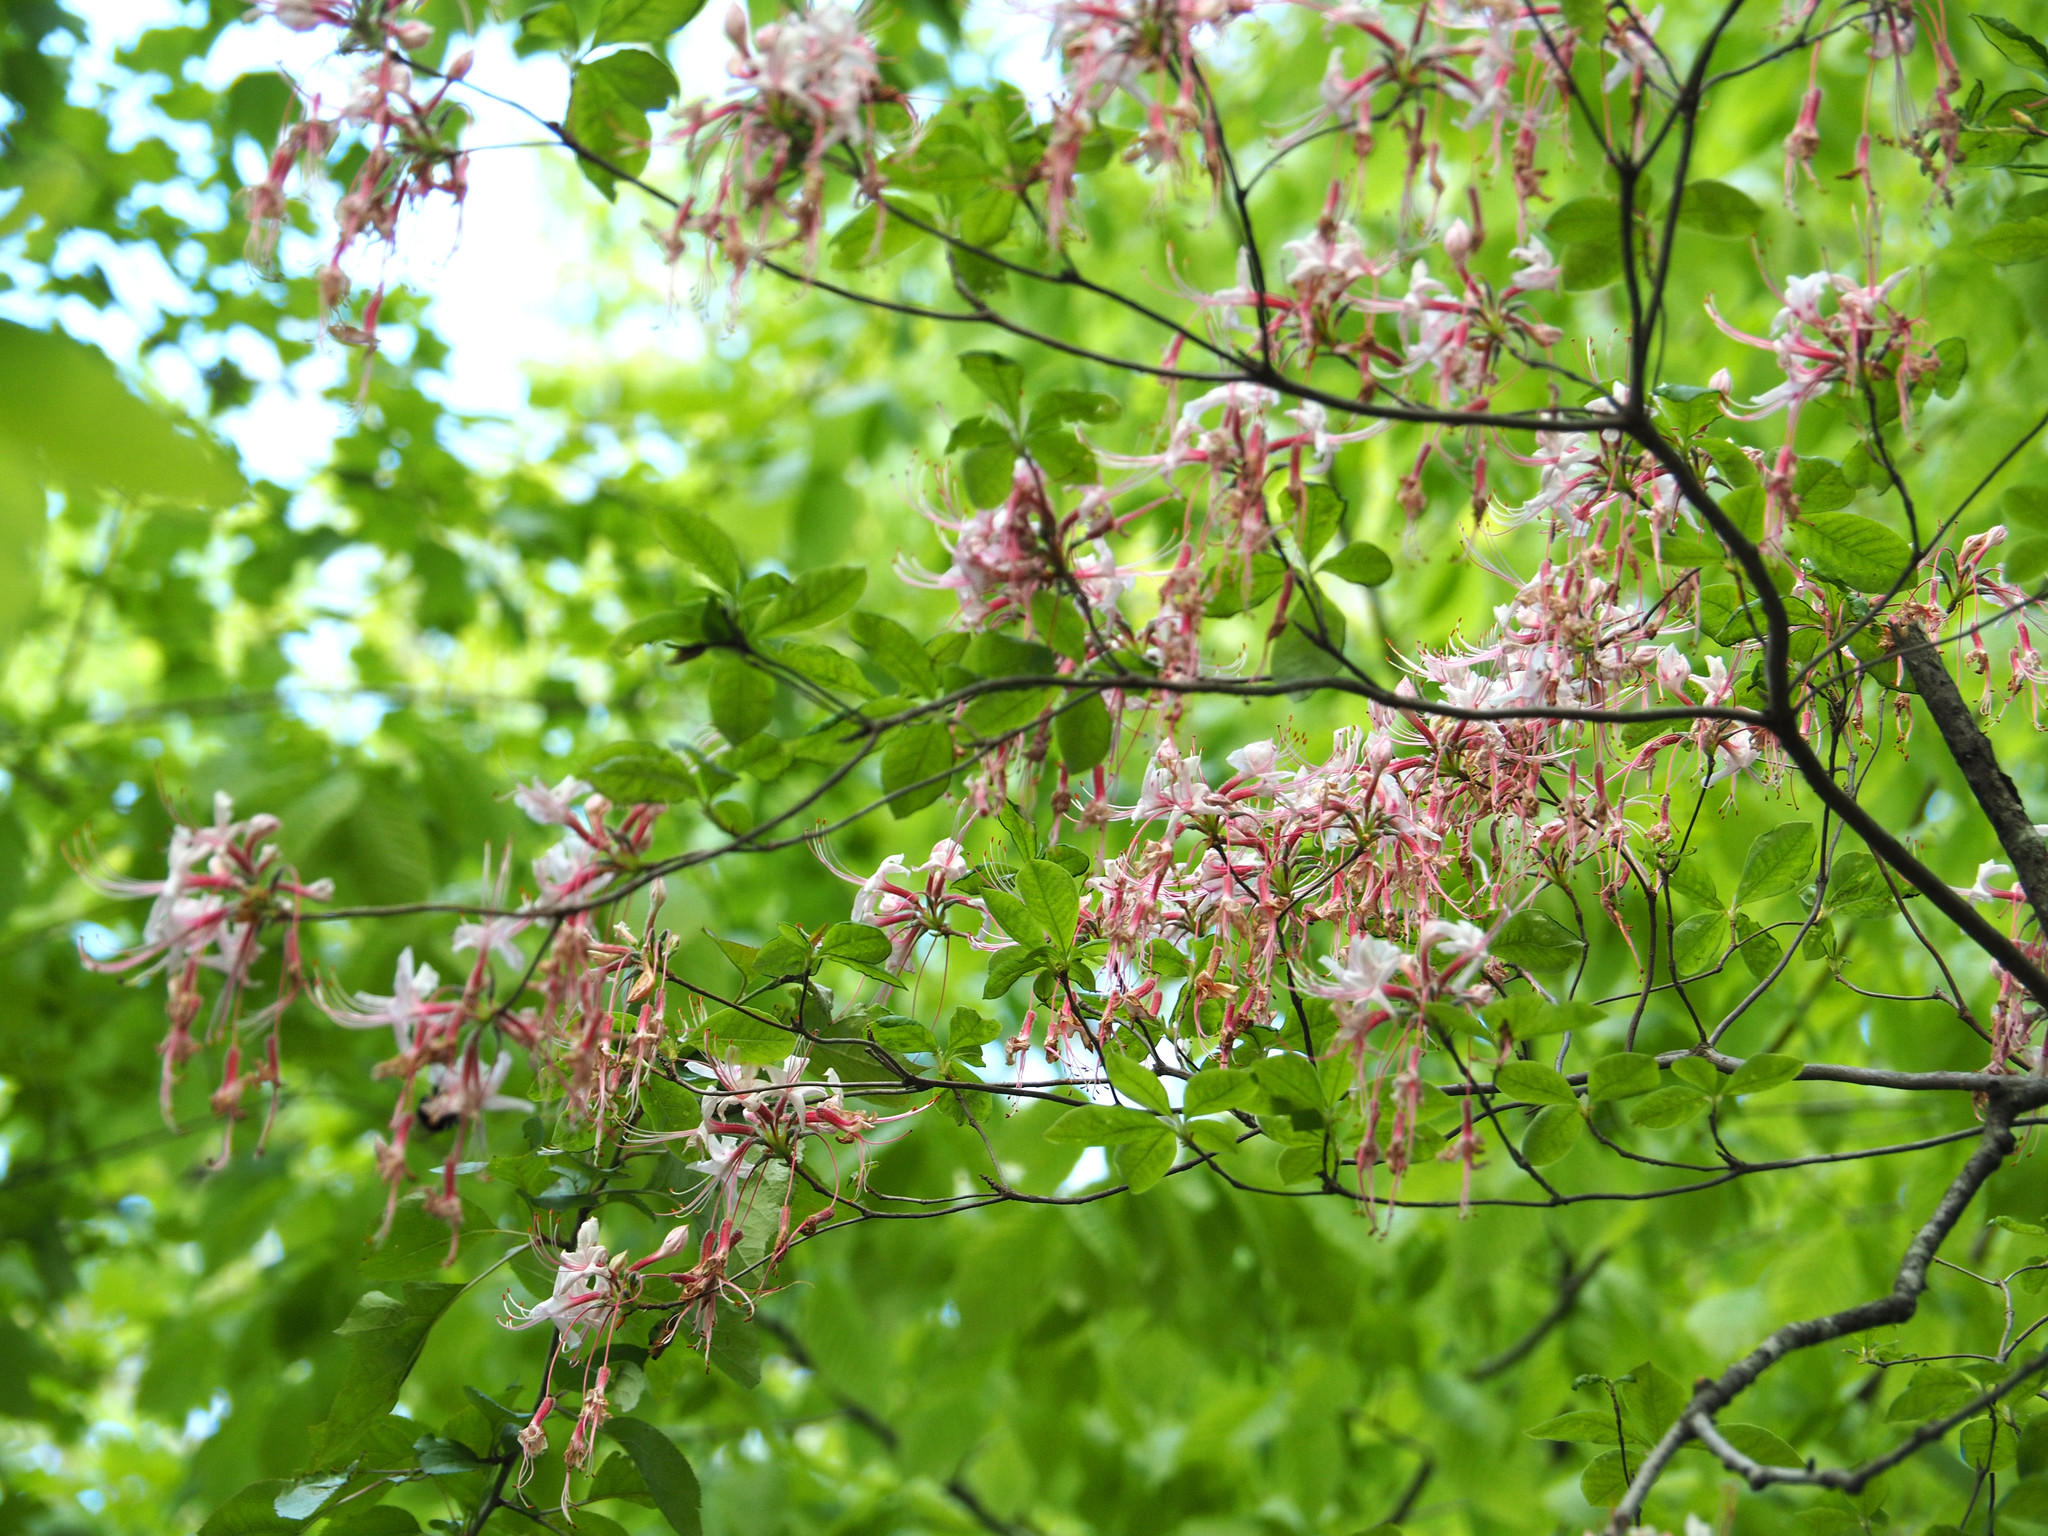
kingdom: Plantae
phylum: Tracheophyta
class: Magnoliopsida
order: Ericales
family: Ericaceae
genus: Rhododendron
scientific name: Rhododendron periclymenoides
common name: Election-pink
